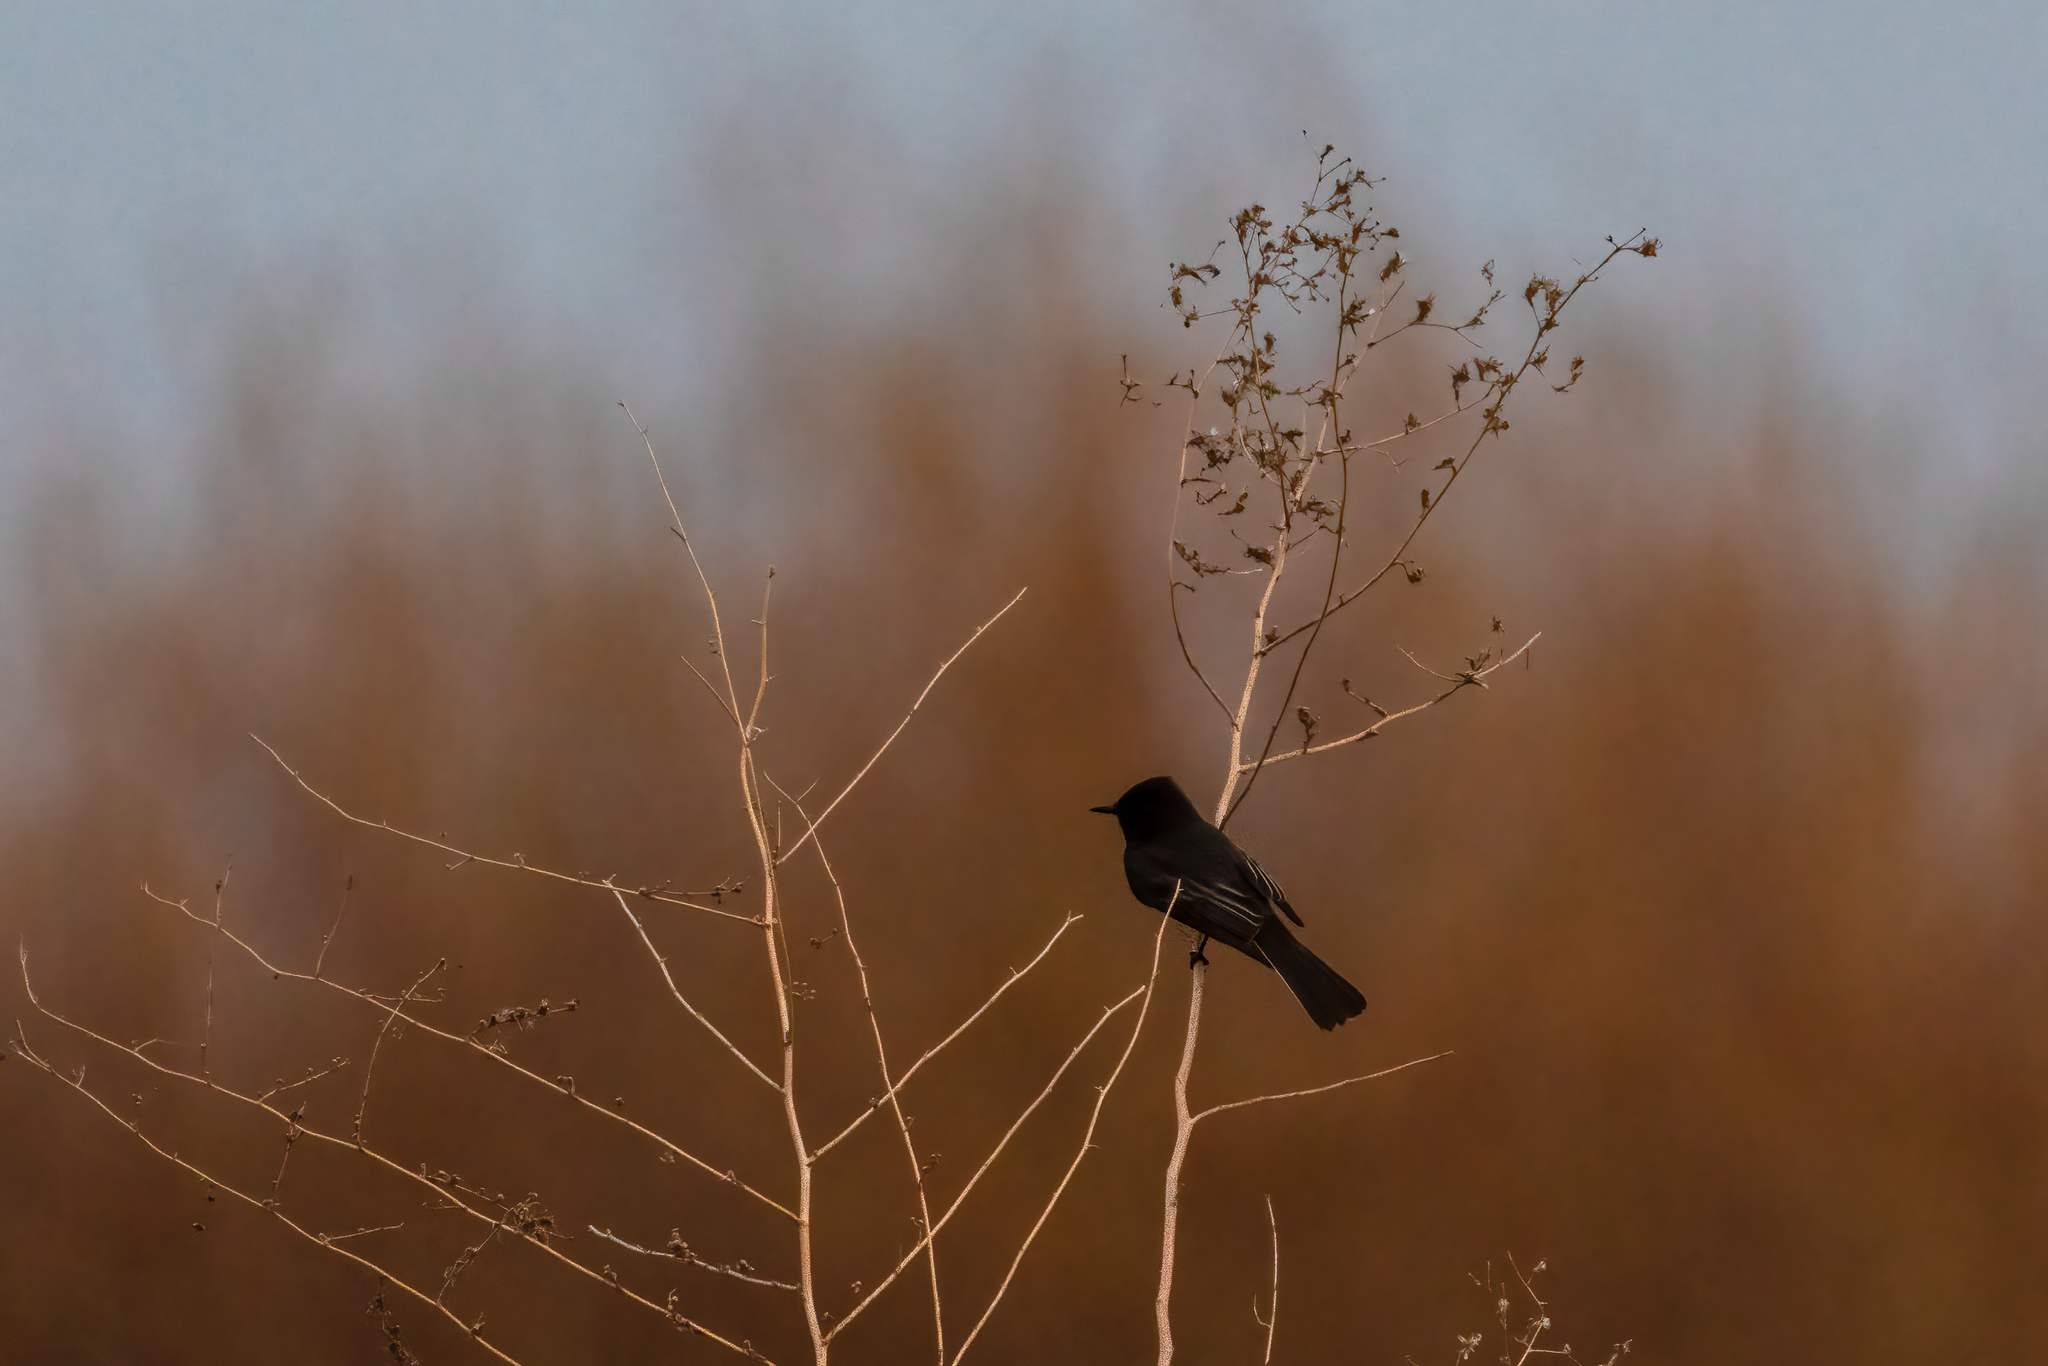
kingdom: Animalia
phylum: Chordata
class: Aves
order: Passeriformes
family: Tyrannidae
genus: Sayornis
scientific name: Sayornis nigricans
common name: Black phoebe
